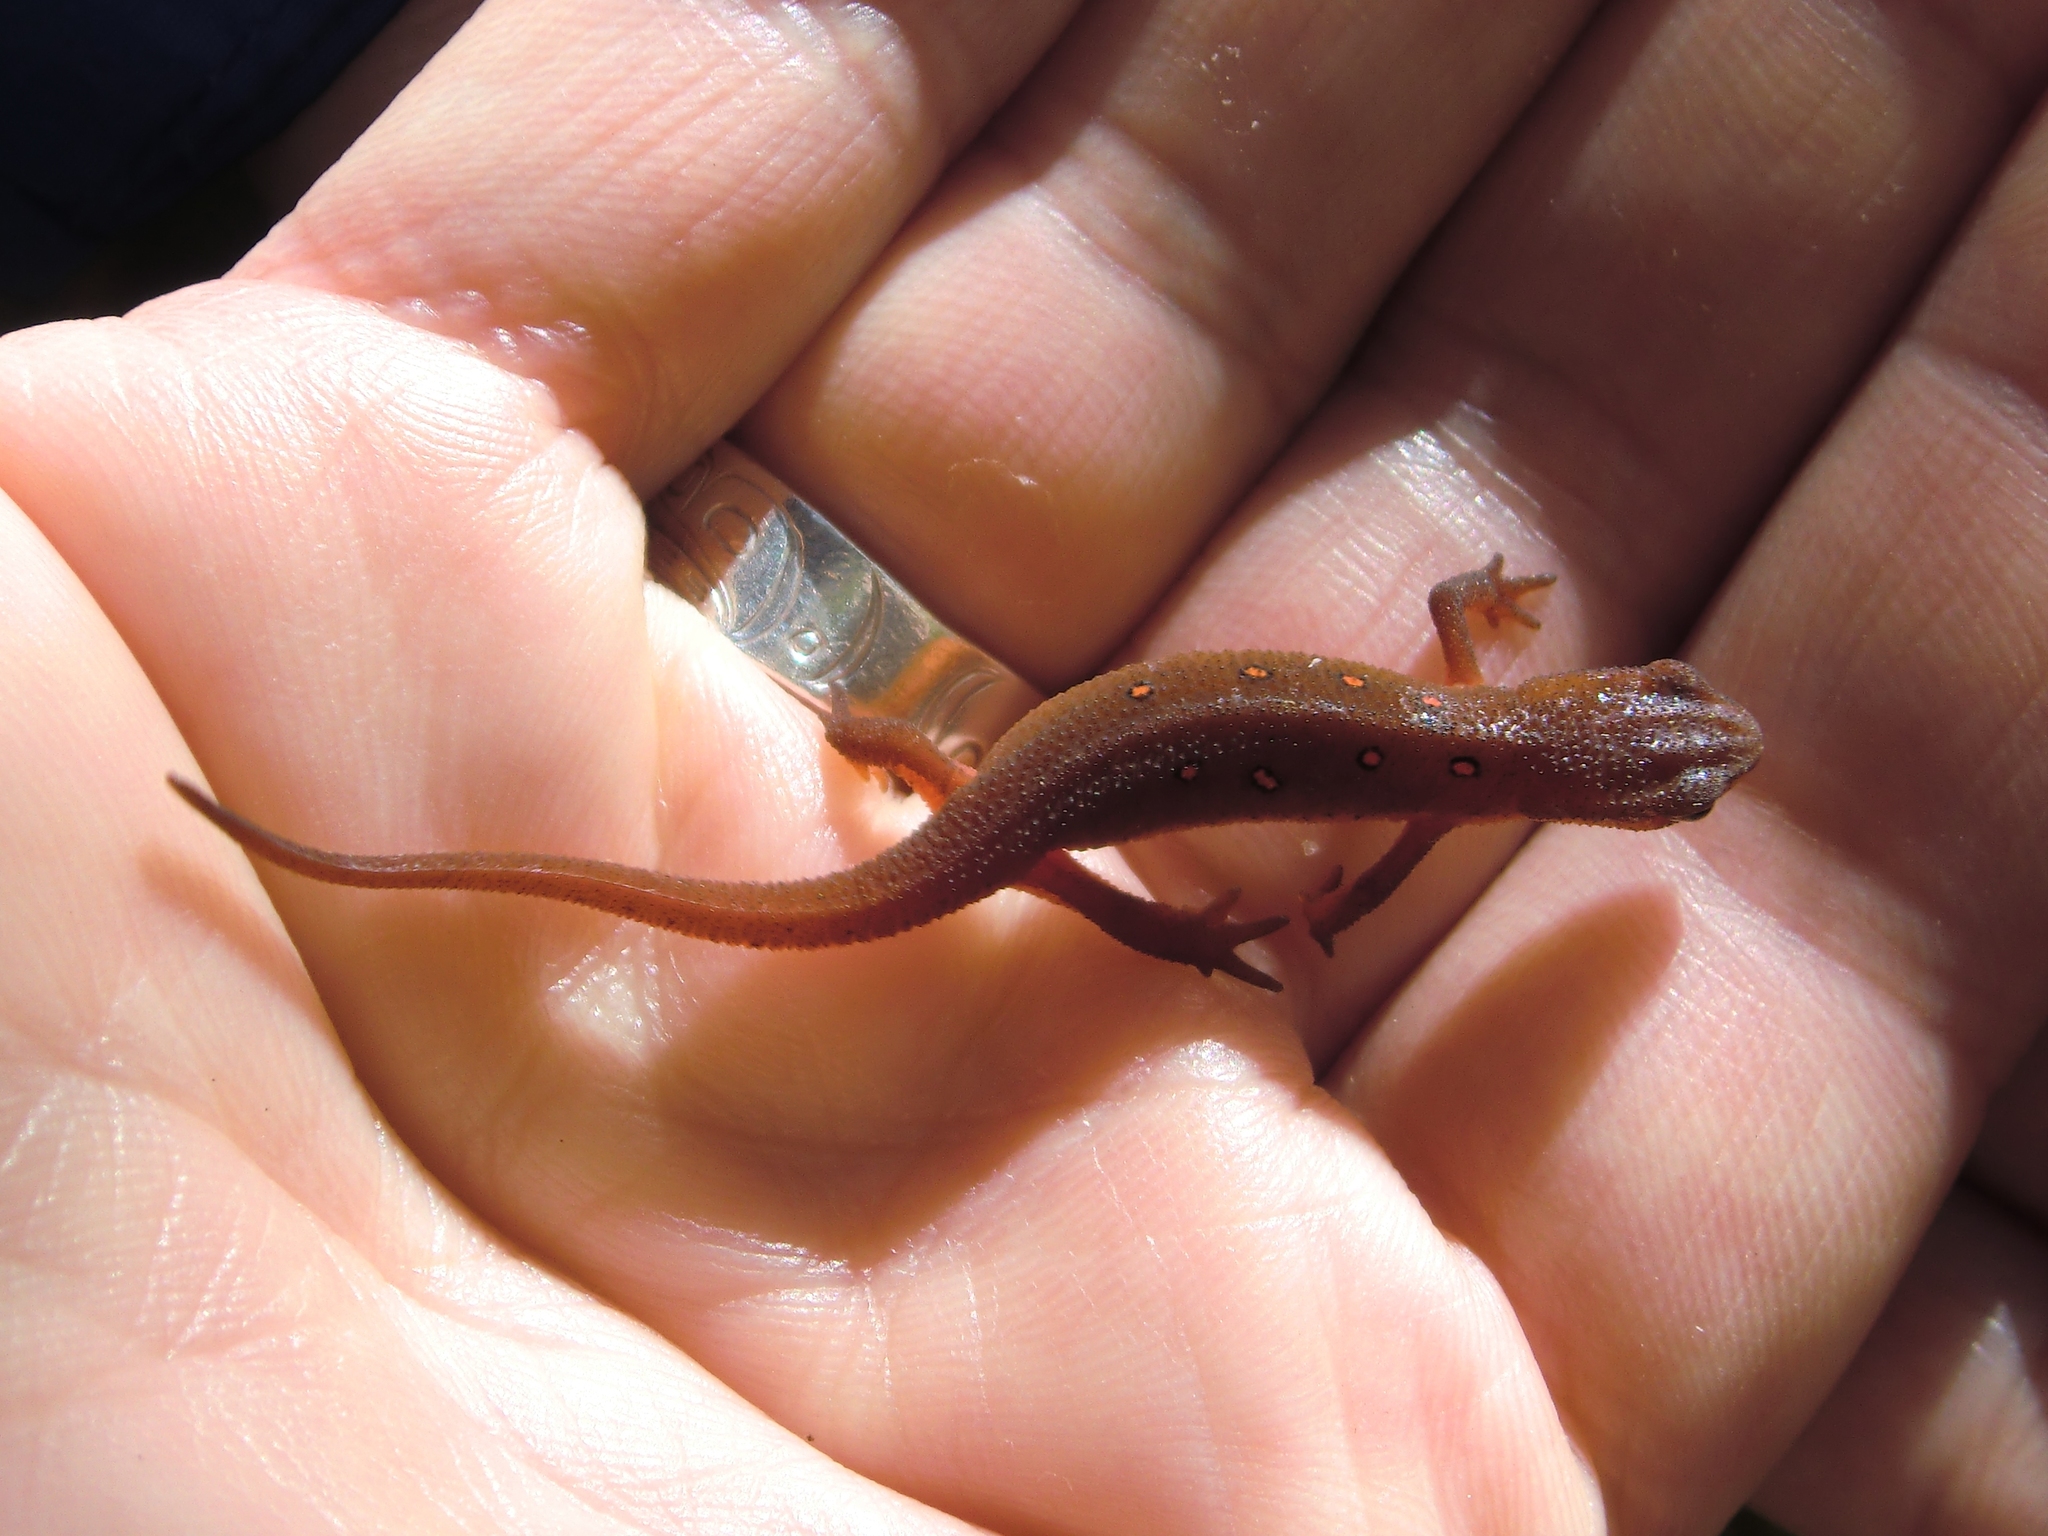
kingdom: Animalia
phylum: Chordata
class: Amphibia
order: Caudata
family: Salamandridae
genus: Notophthalmus
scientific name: Notophthalmus viridescens
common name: Eastern newt
